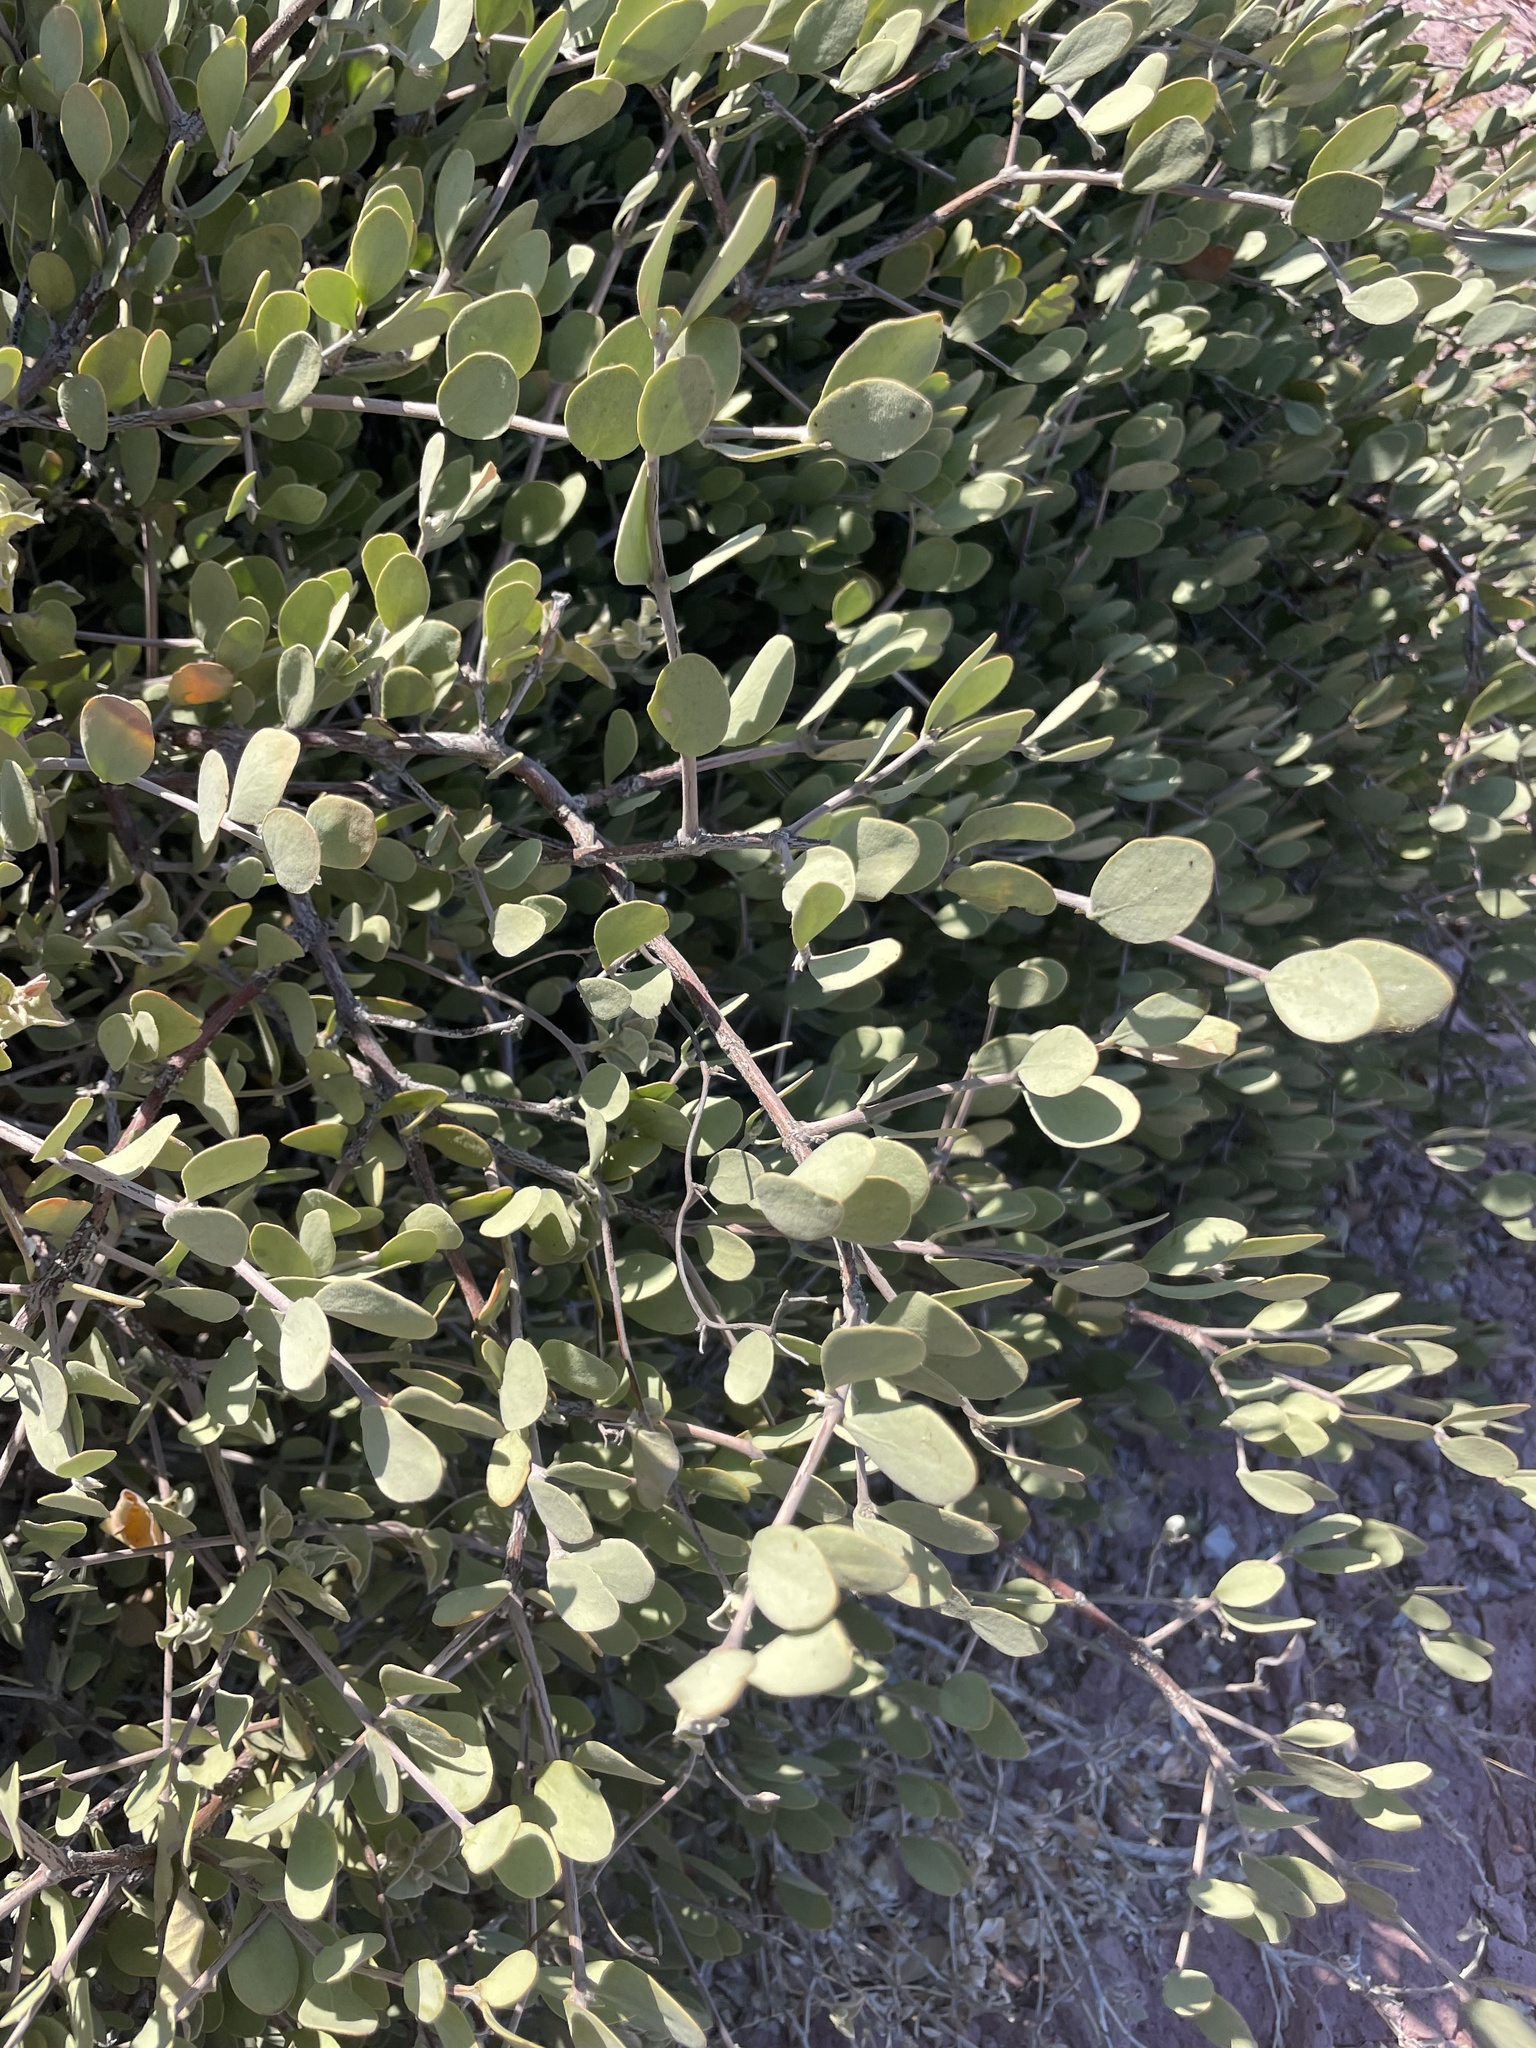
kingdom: Plantae
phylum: Tracheophyta
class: Magnoliopsida
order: Caryophyllales
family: Simmondsiaceae
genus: Simmondsia
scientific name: Simmondsia chinensis
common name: Jojoba
